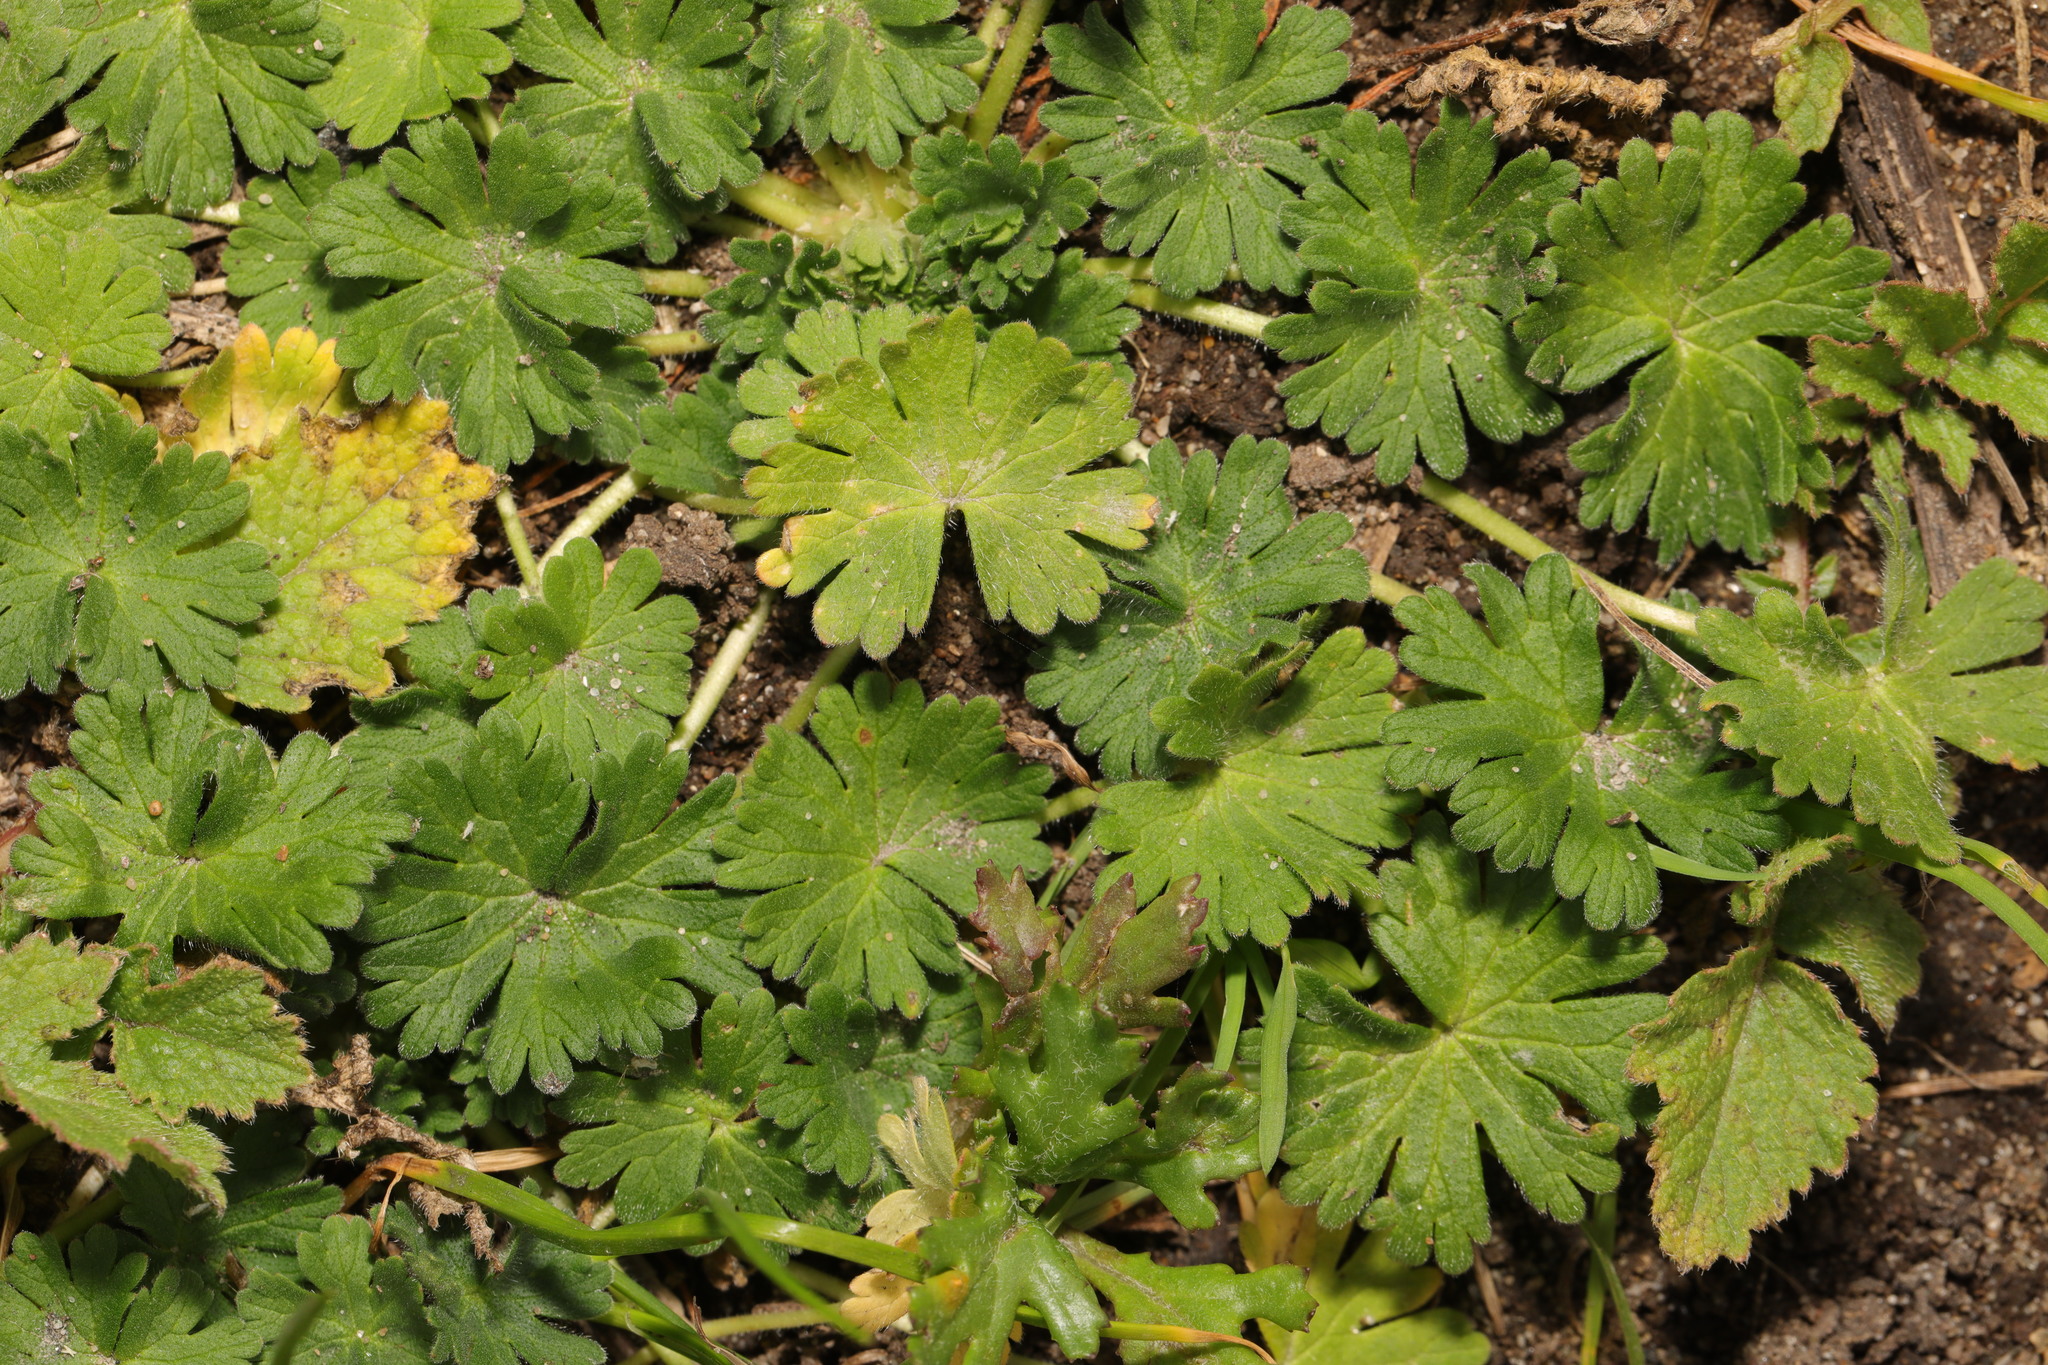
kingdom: Plantae
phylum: Tracheophyta
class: Magnoliopsida
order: Geraniales
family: Geraniaceae
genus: Geranium
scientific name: Geranium molle
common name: Dove's-foot crane's-bill
